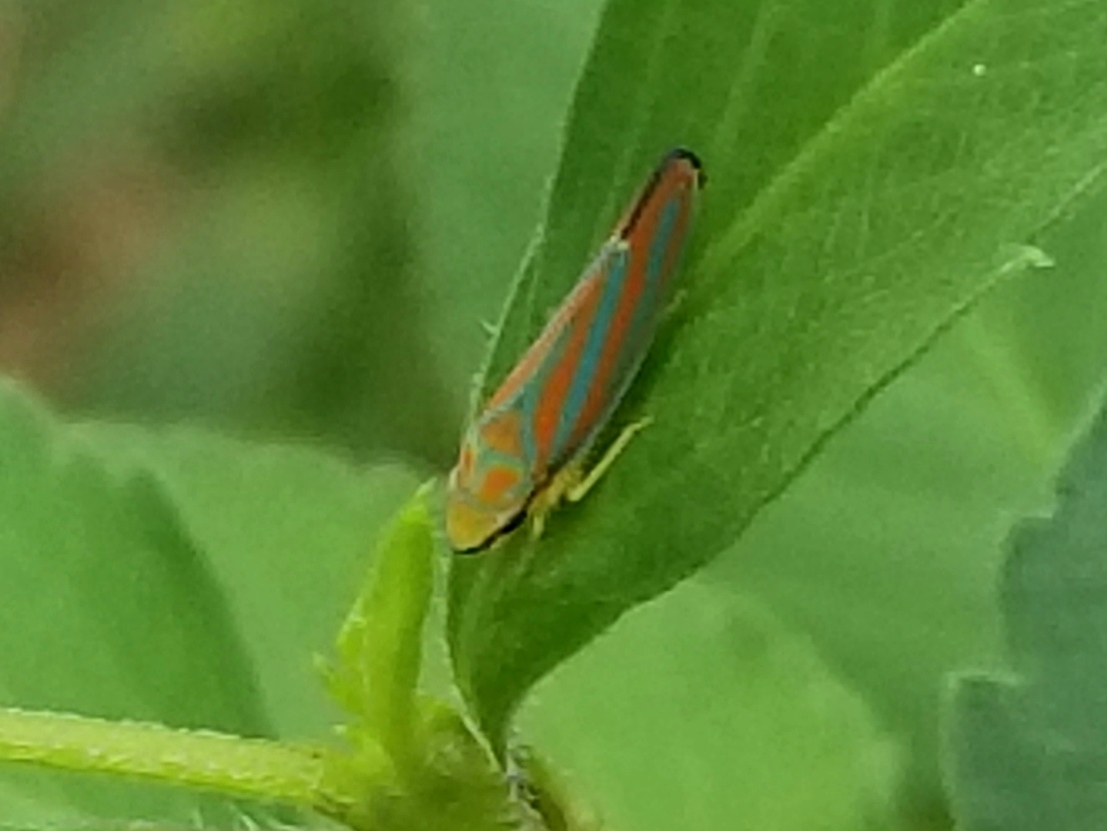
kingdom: Animalia
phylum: Arthropoda
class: Insecta
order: Hemiptera
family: Cicadellidae
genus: Graphocephala
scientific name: Graphocephala coccinea
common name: Candy-striped leafhopper
